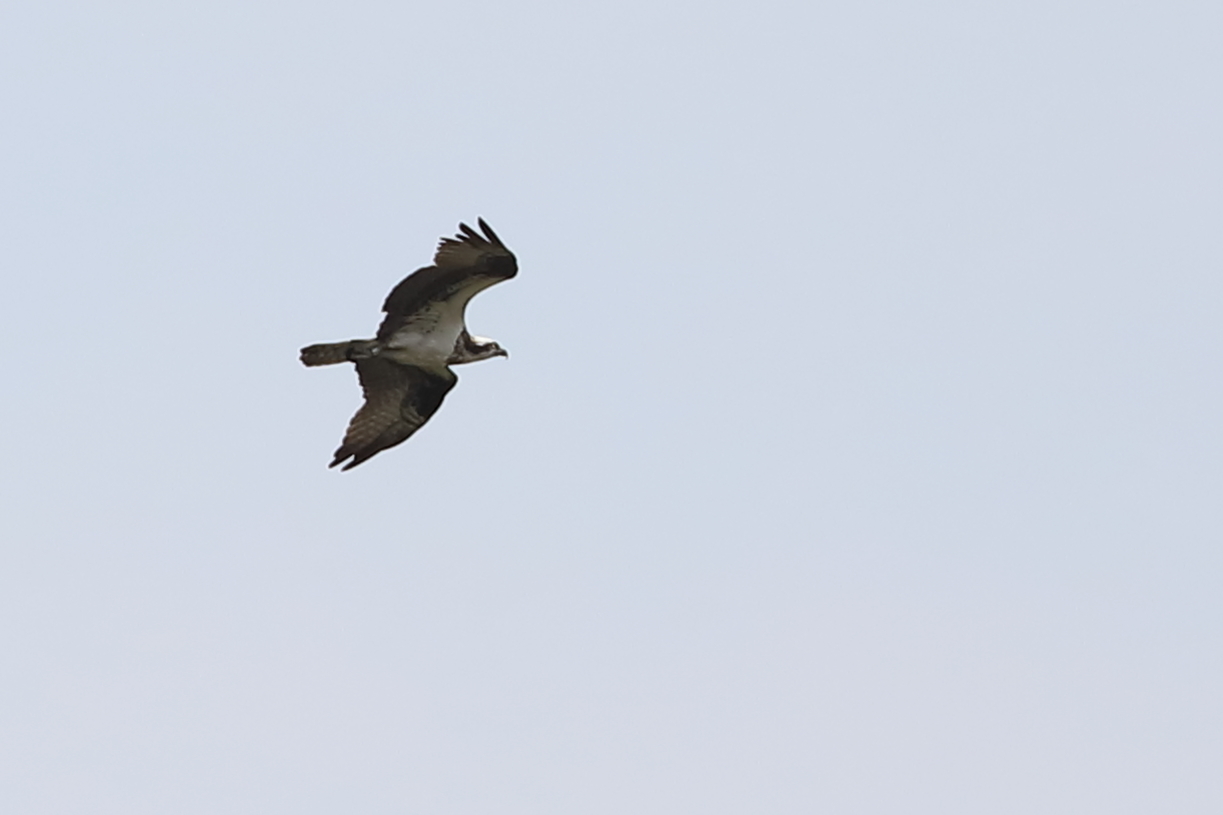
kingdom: Animalia
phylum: Chordata
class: Aves
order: Accipitriformes
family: Pandionidae
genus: Pandion
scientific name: Pandion haliaetus
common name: Osprey
